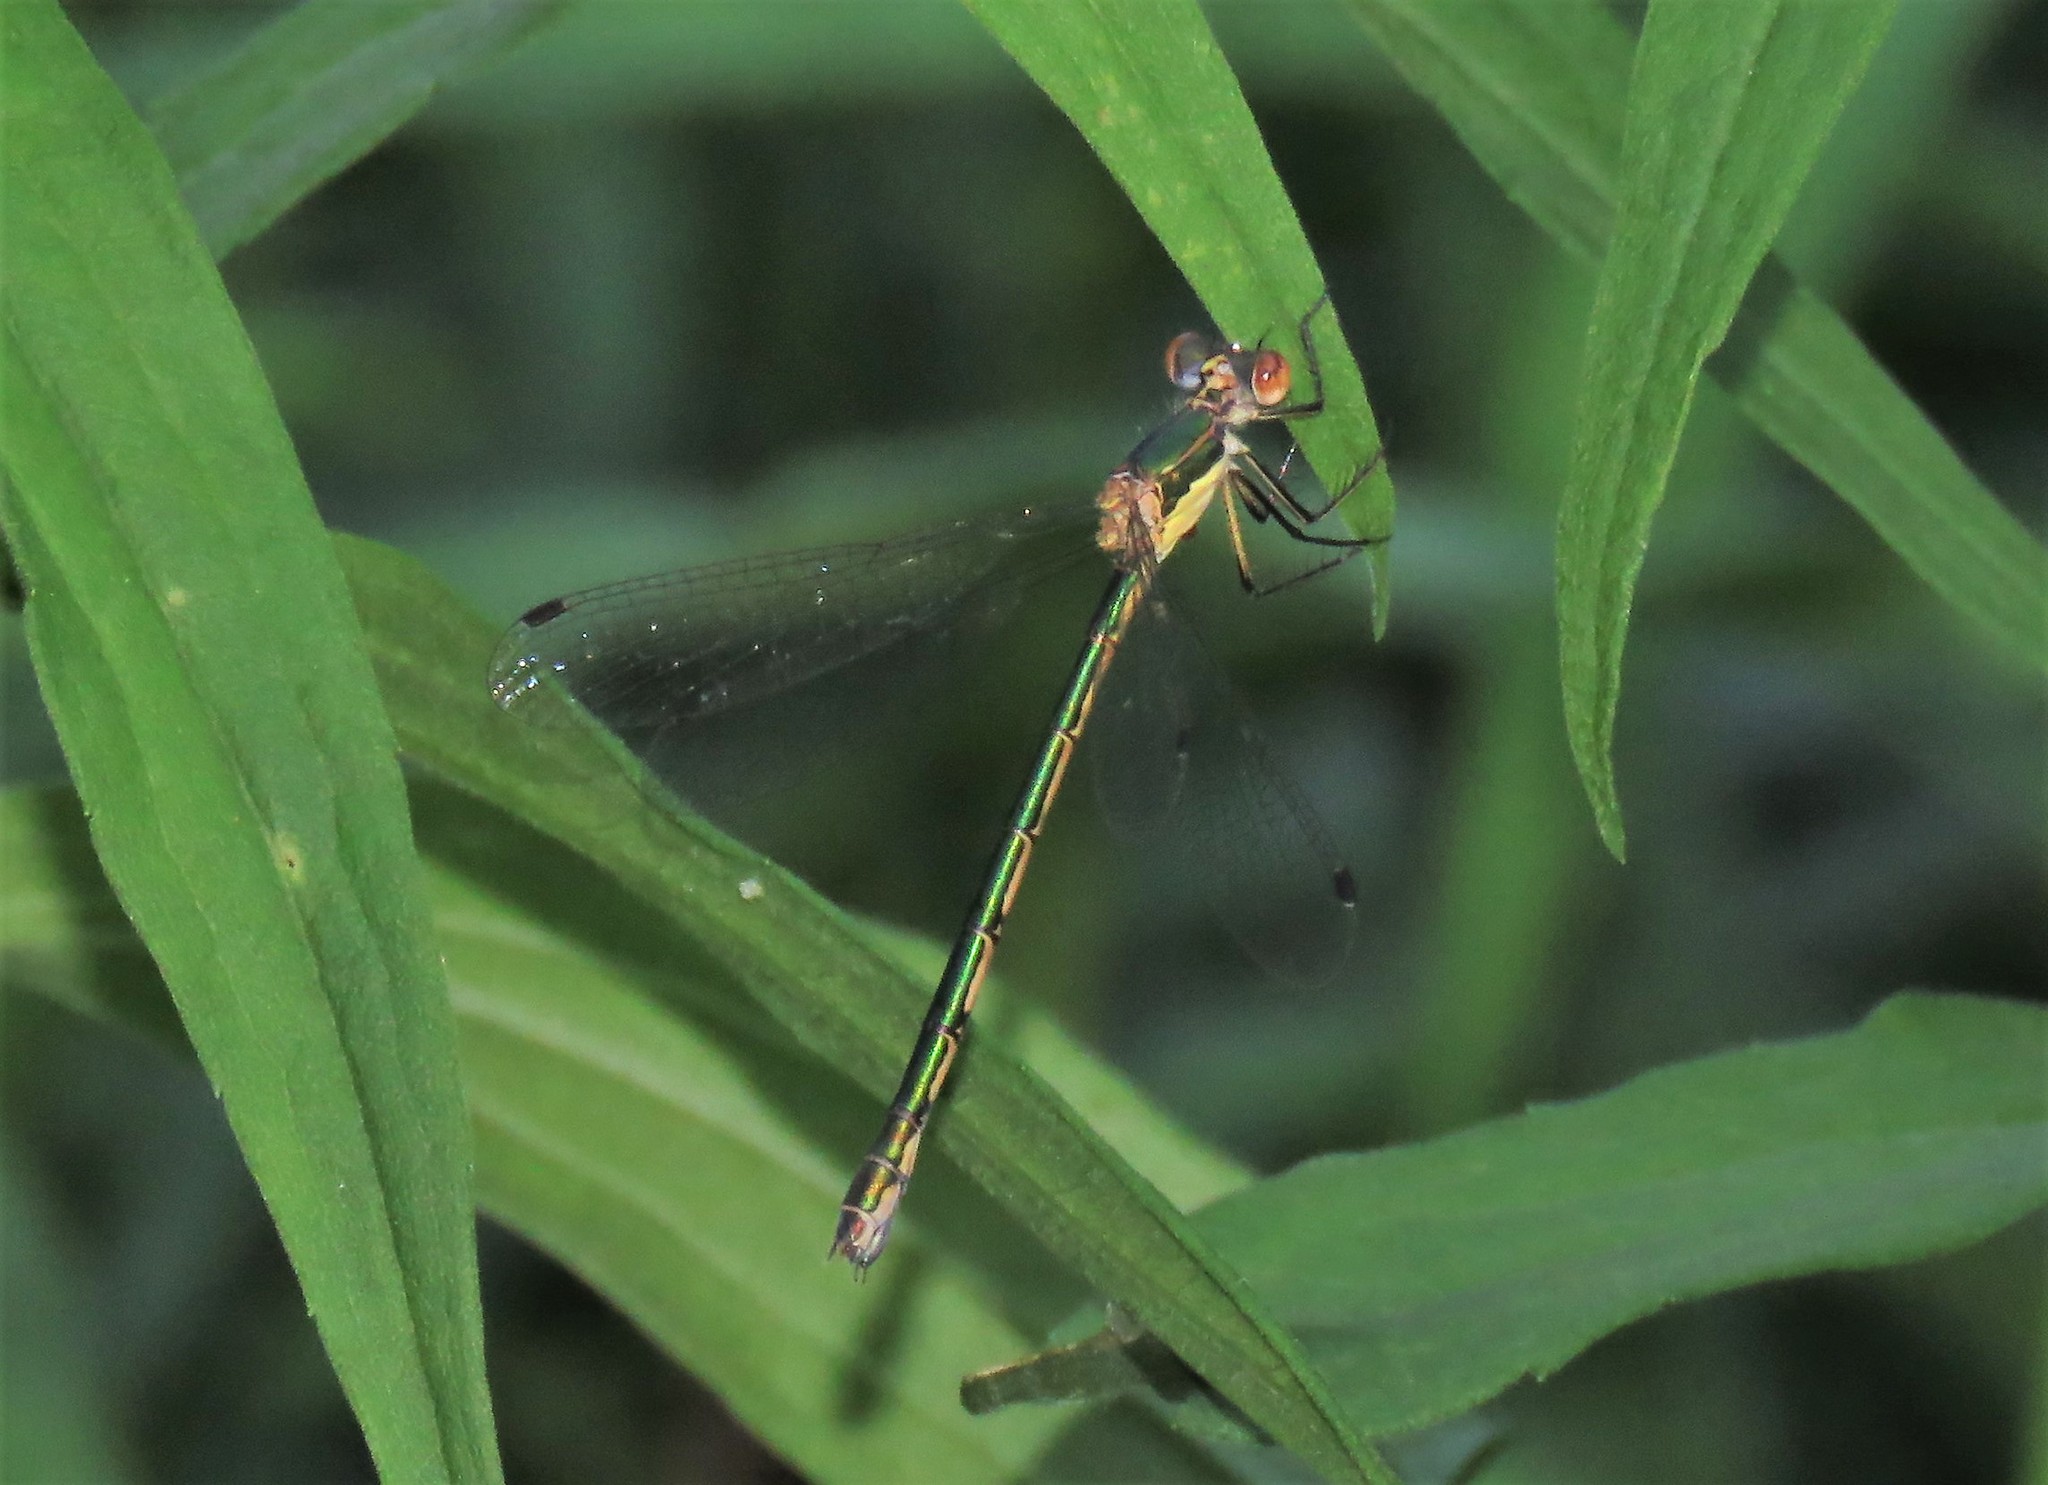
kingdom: Animalia
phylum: Arthropoda
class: Insecta
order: Odonata
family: Lestidae
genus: Lestes
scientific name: Lestes dryas
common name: Scarce emerald damselfly
